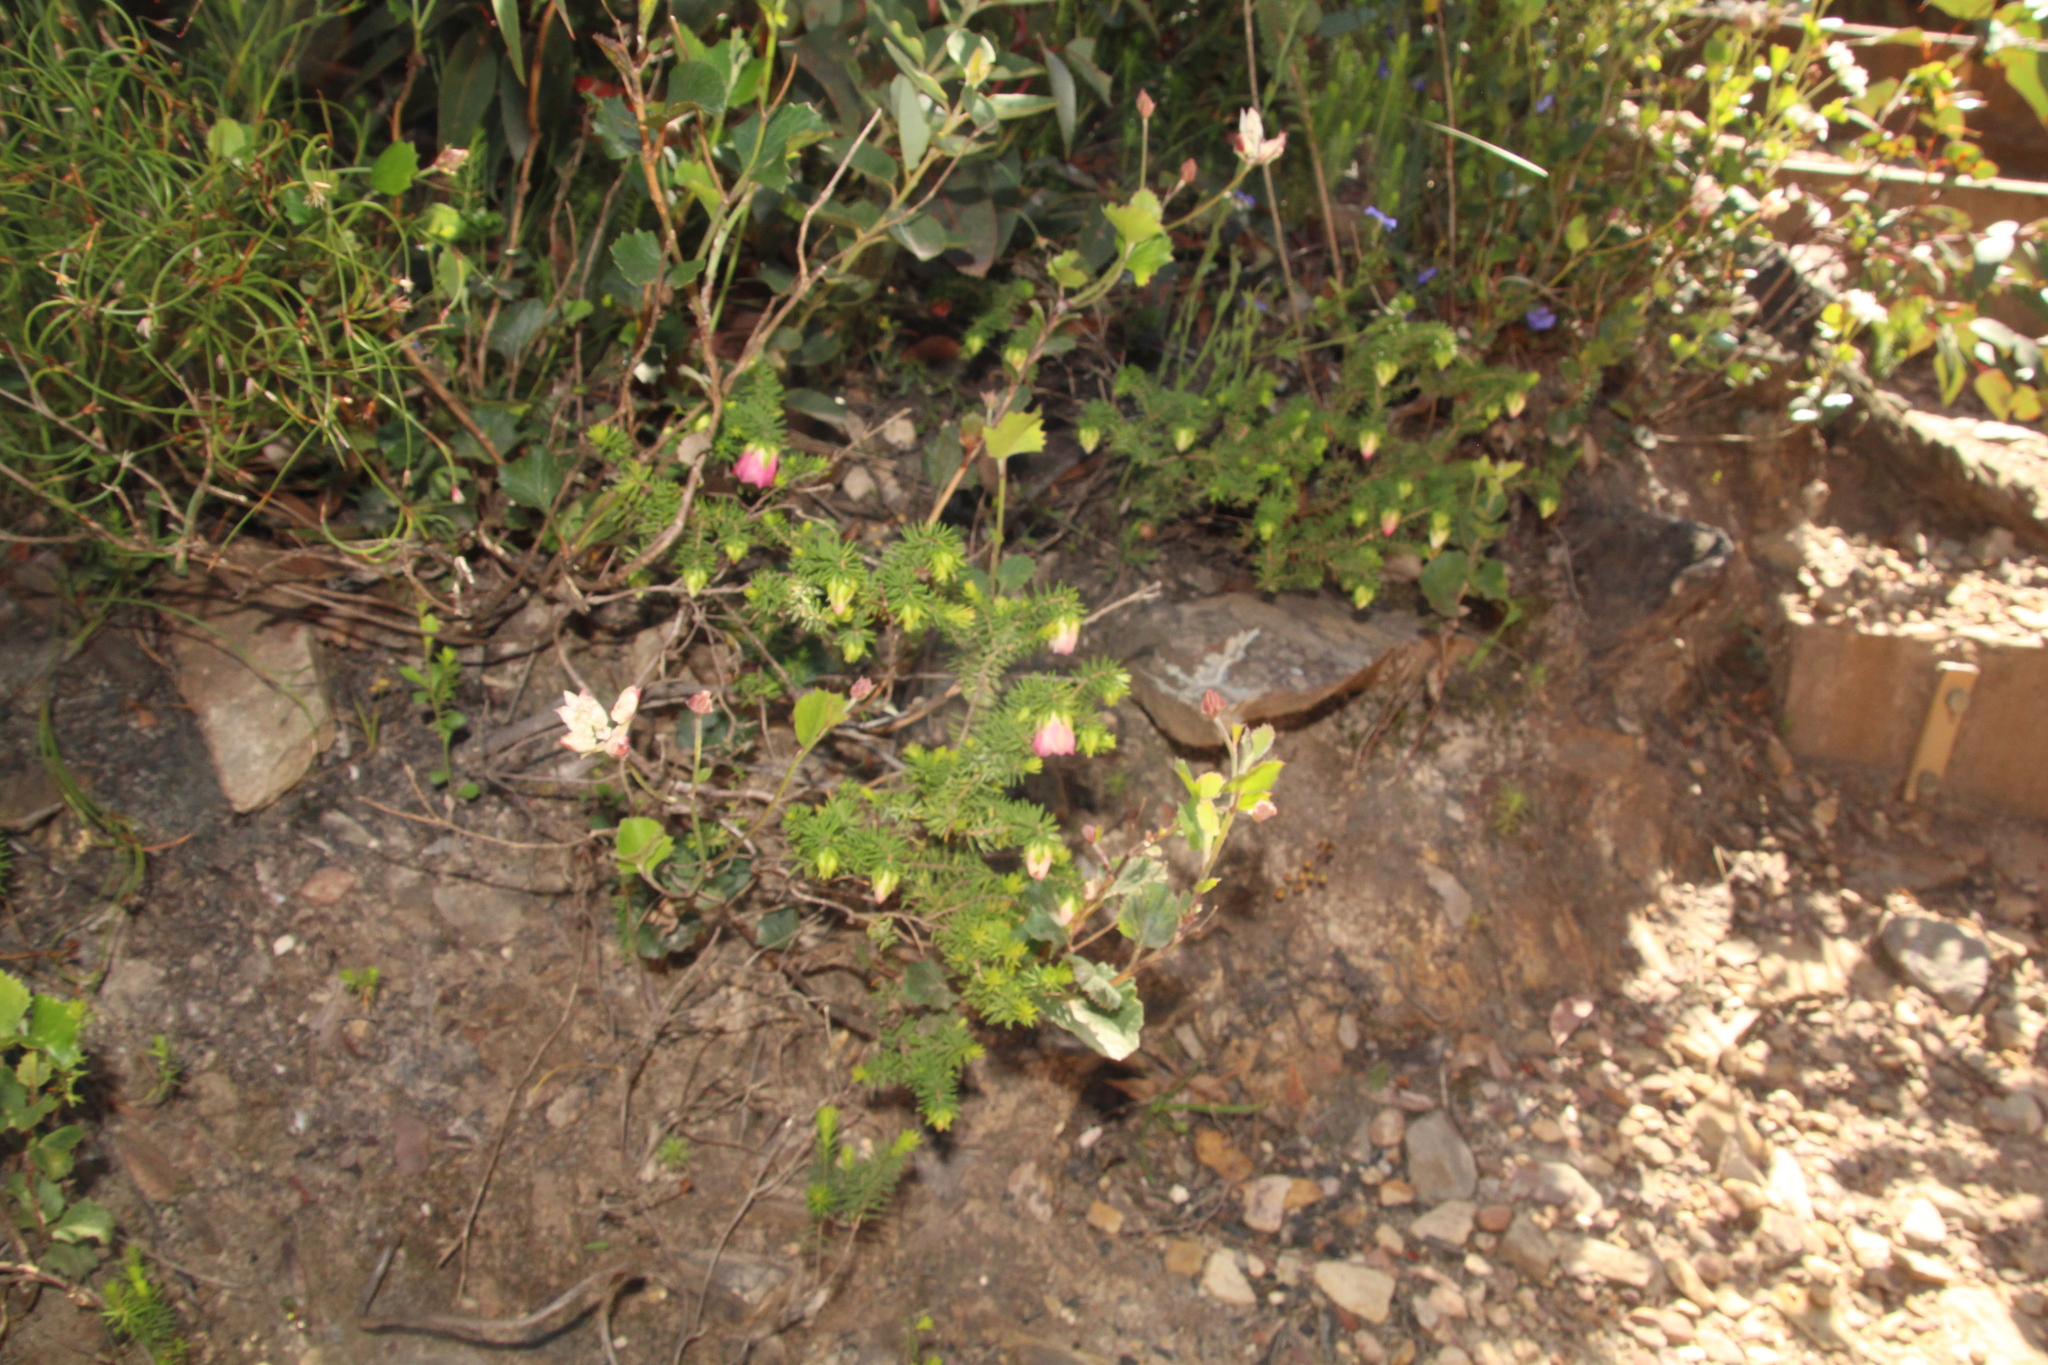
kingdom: Plantae
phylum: Tracheophyta
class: Magnoliopsida
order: Myrtales
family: Myrtaceae
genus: Darwinia
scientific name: Darwinia lejostyla
